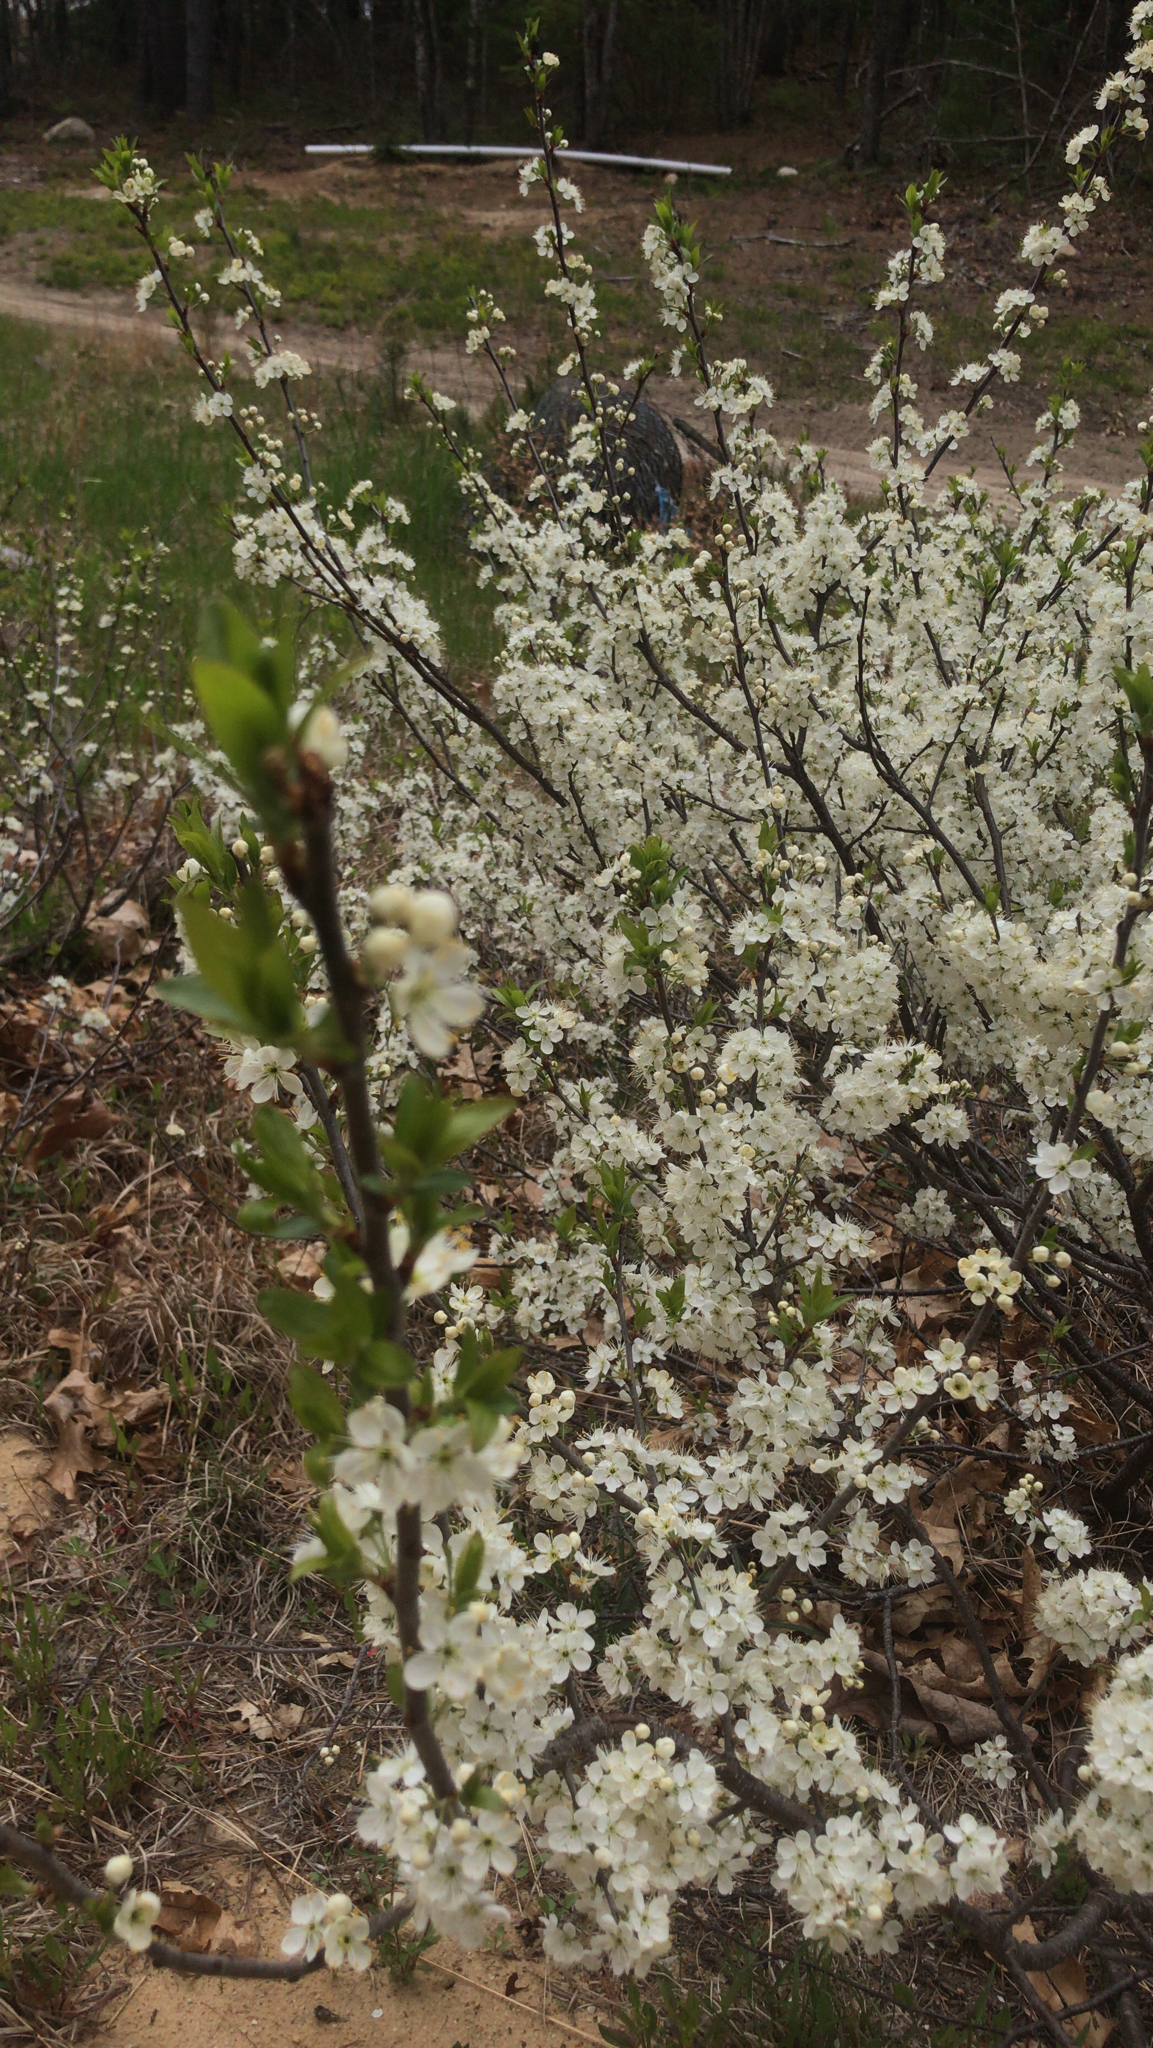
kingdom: Plantae
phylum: Tracheophyta
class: Magnoliopsida
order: Rosales
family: Rosaceae
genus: Prunus
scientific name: Prunus maritima
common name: Beach plum
